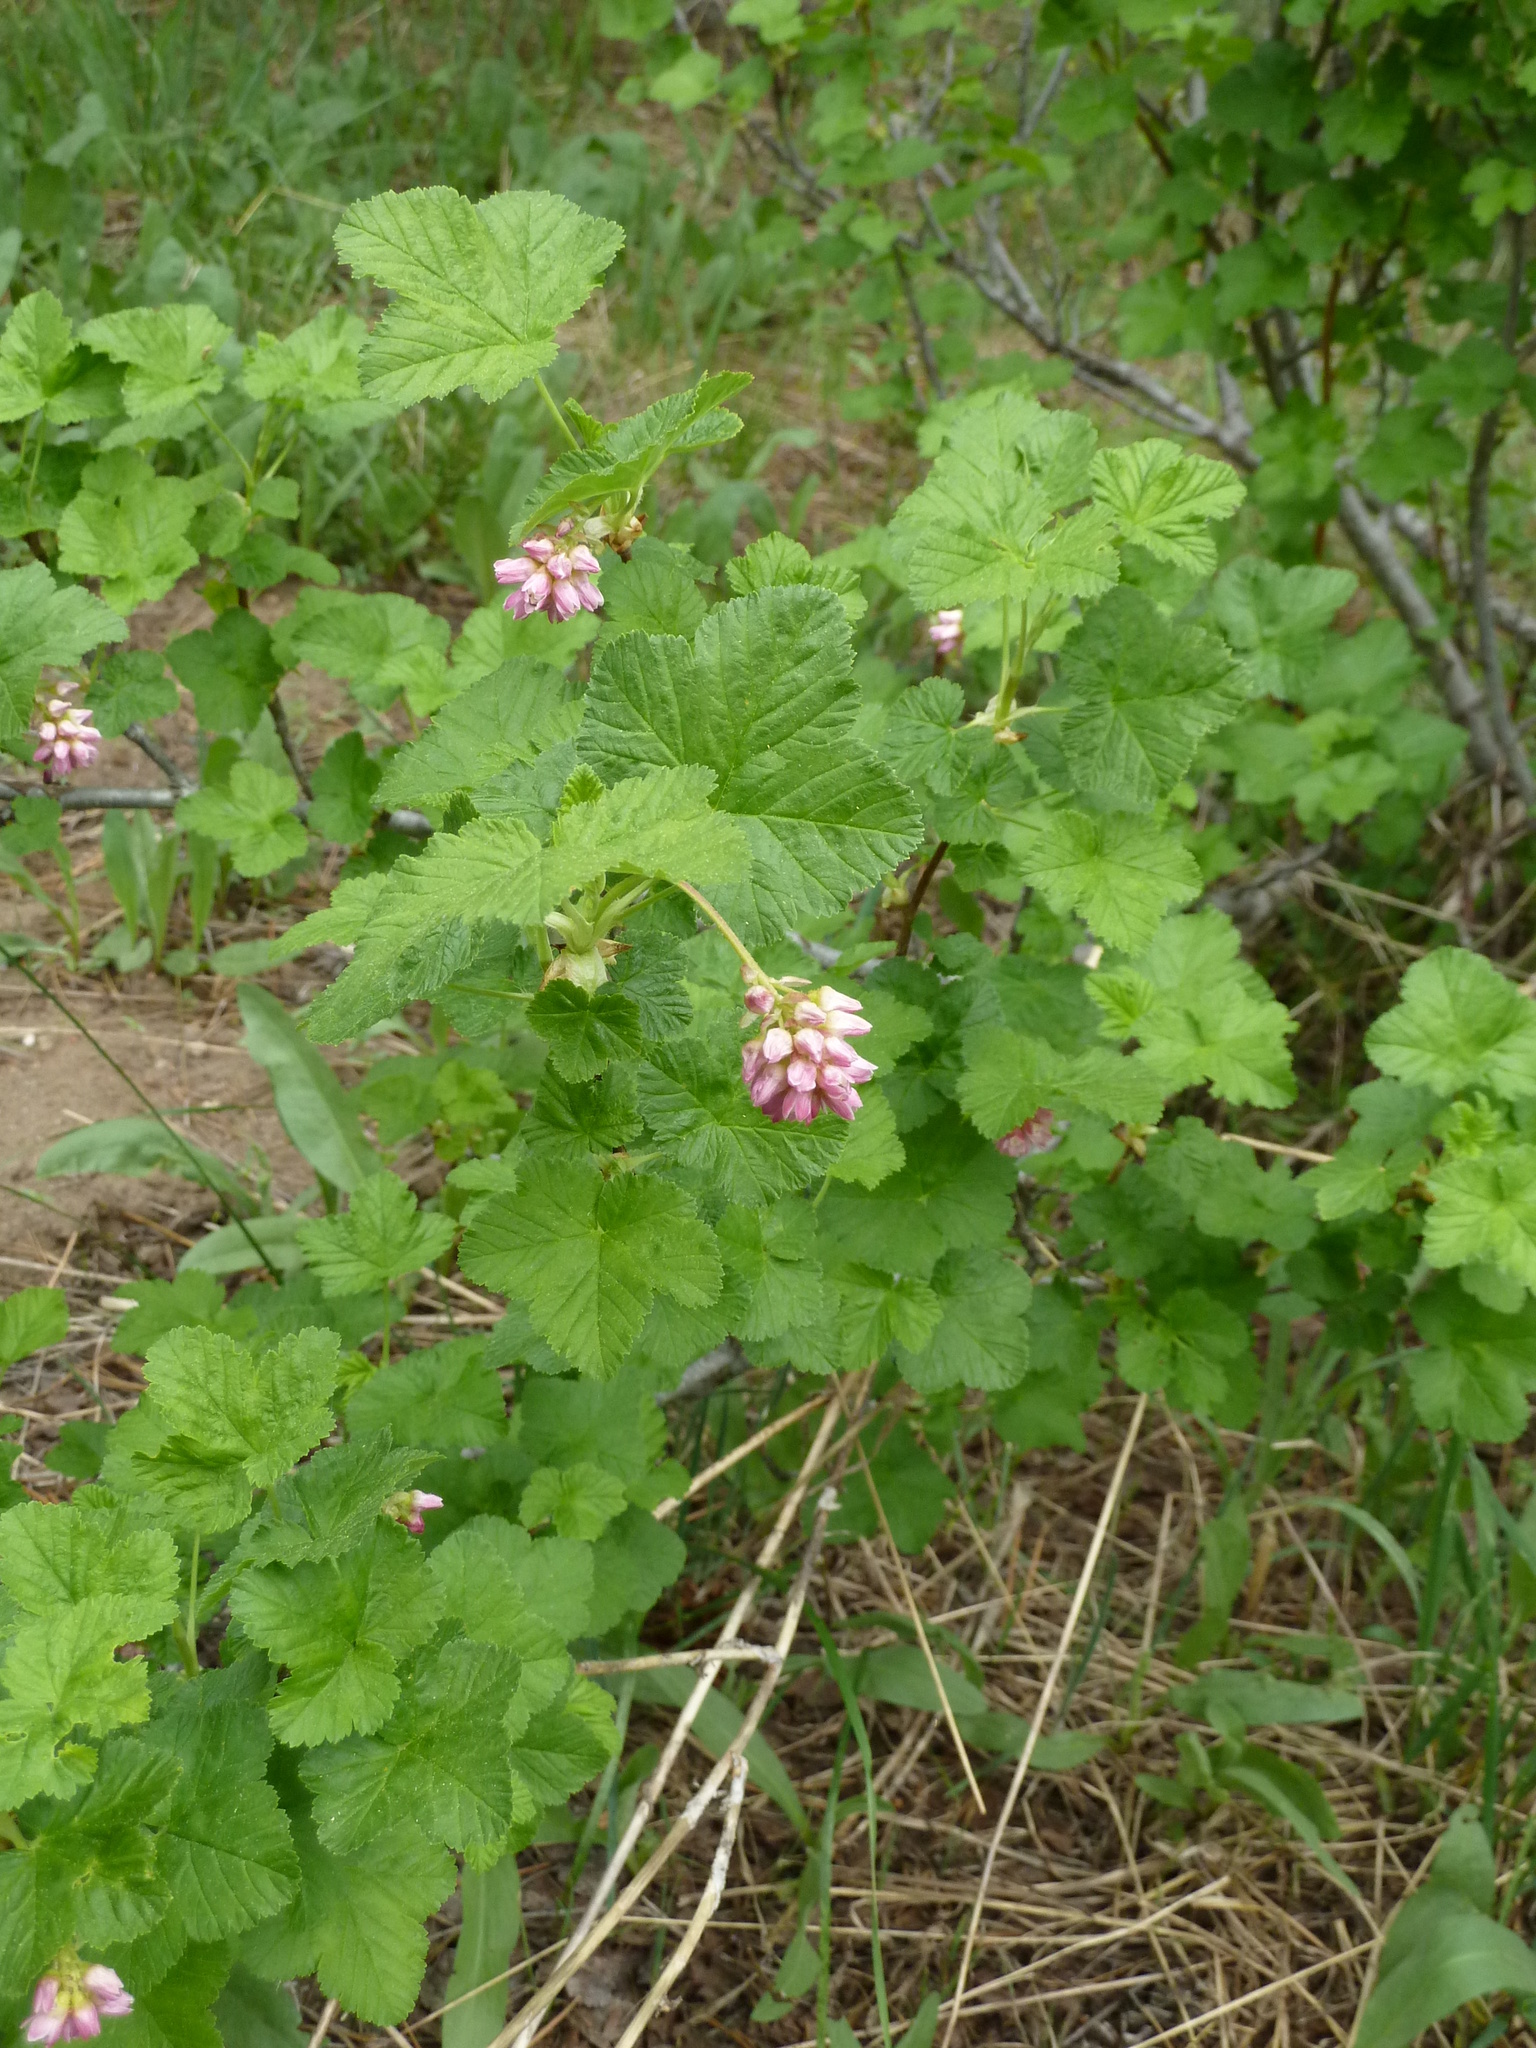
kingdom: Plantae
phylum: Tracheophyta
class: Magnoliopsida
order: Saxifragales
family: Grossulariaceae
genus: Ribes
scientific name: Ribes nevadense
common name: Mountain pink currant
